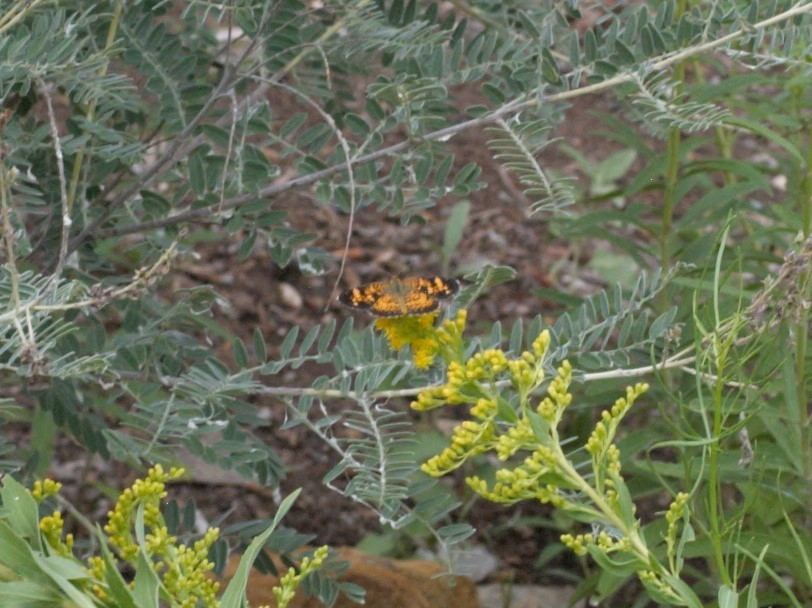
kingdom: Animalia
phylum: Arthropoda
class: Insecta
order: Lepidoptera
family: Nymphalidae
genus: Phyciodes
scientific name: Phyciodes
